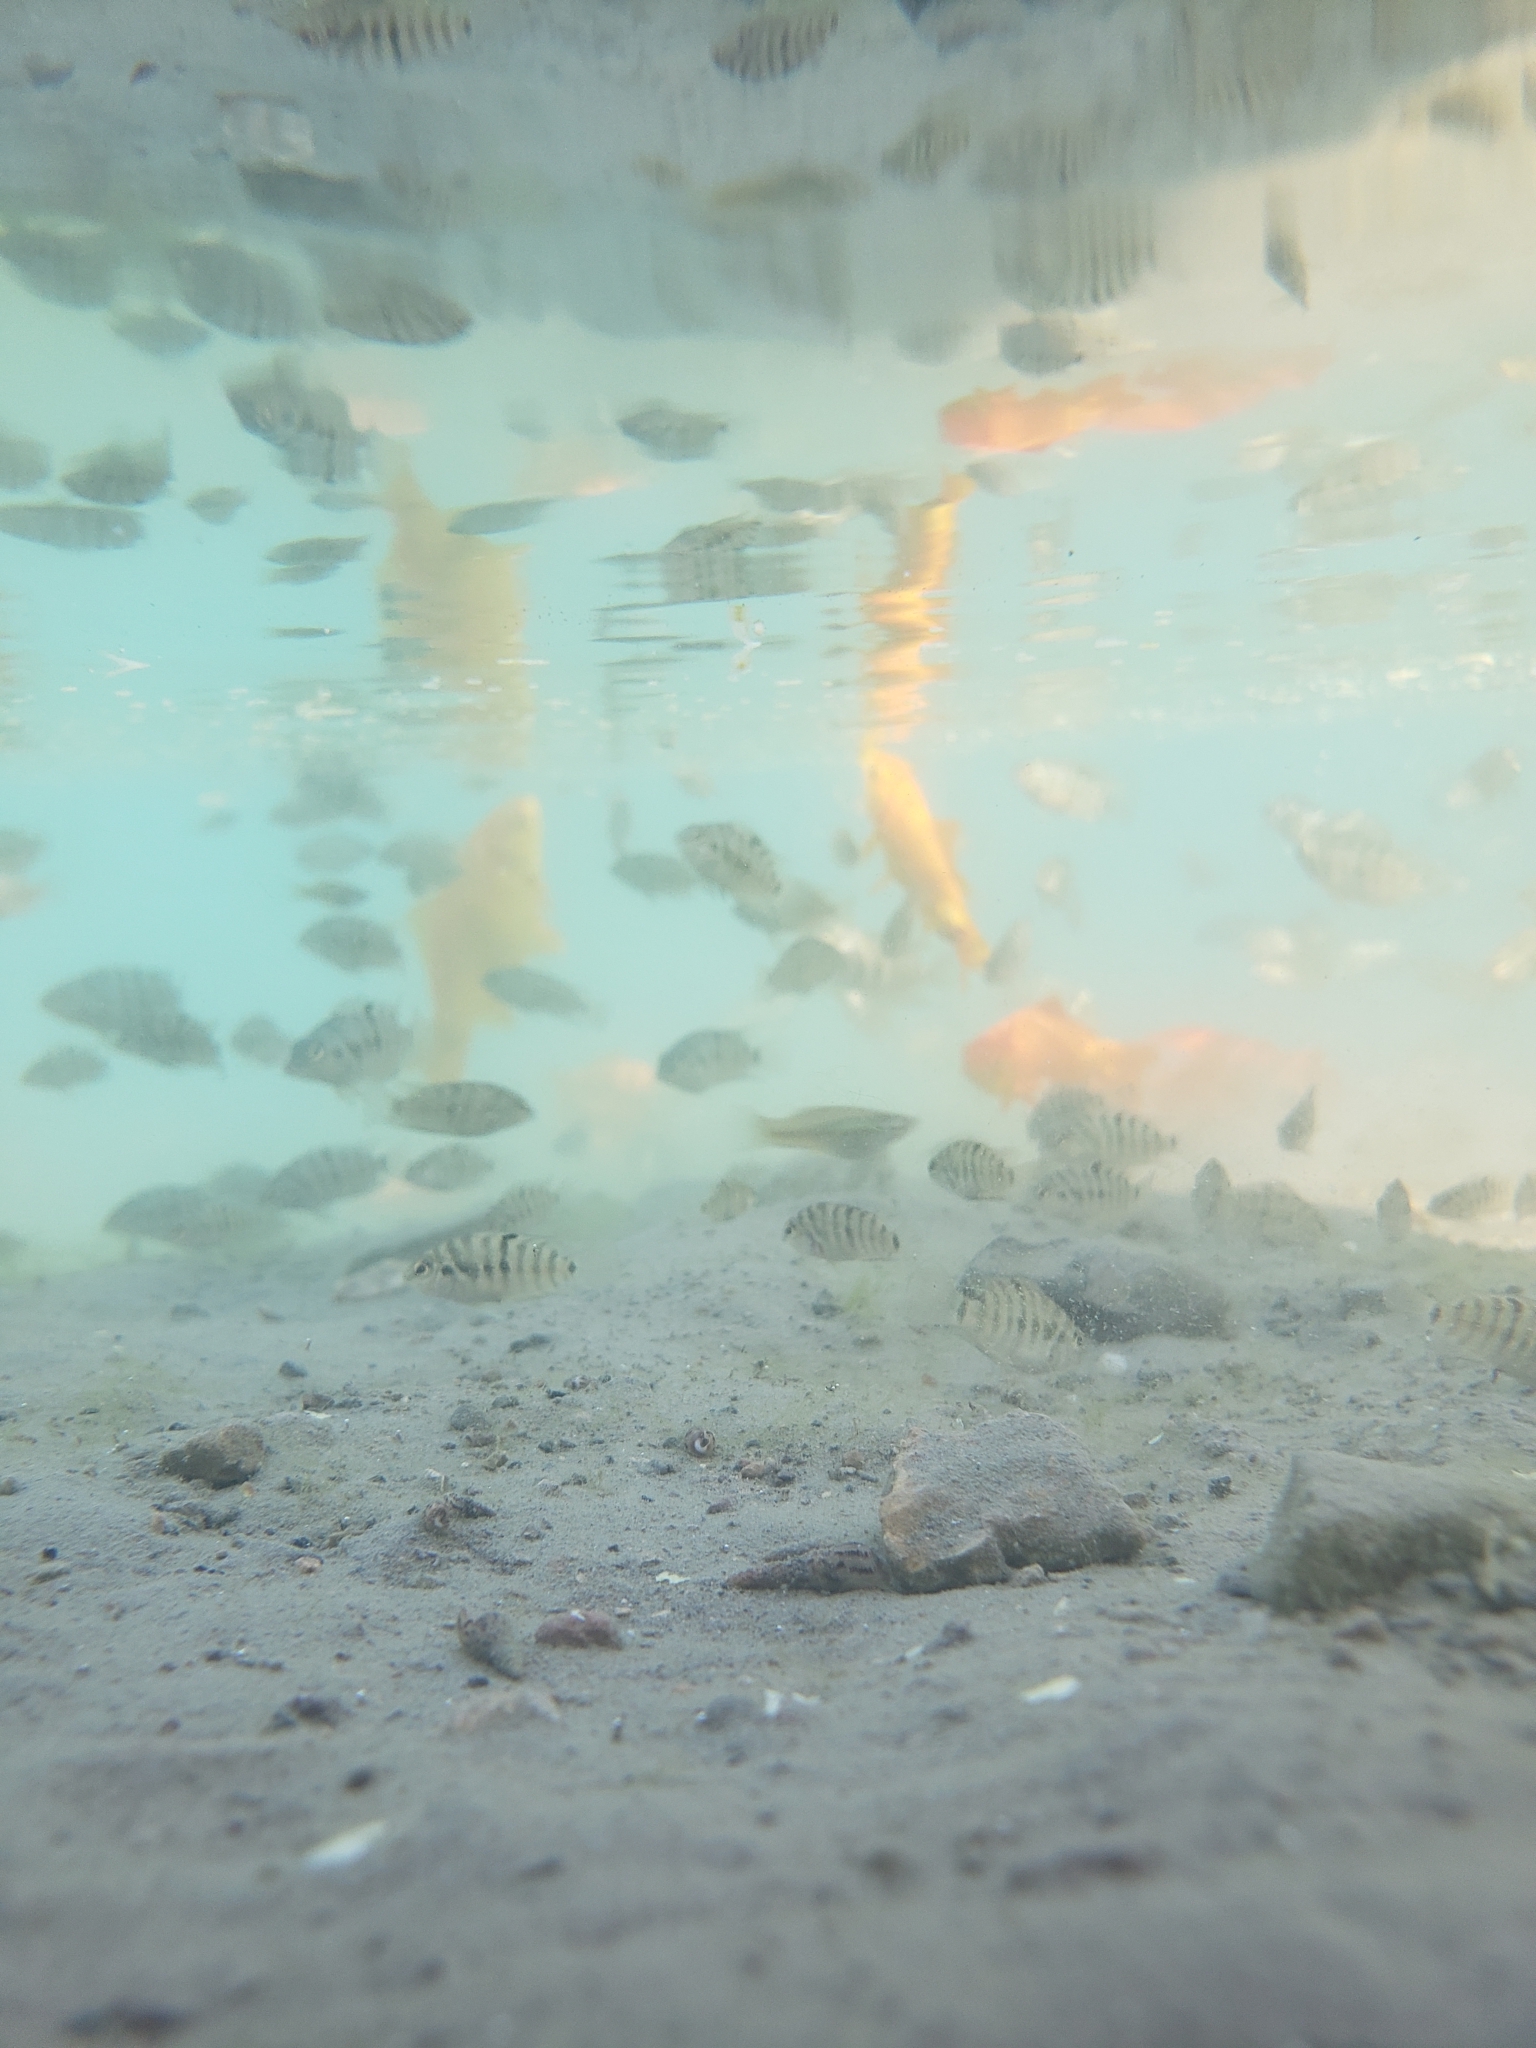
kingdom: Animalia
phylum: Chordata
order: Perciformes
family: Cichlidae
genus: Amatitlania
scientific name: Amatitlania nigrofasciata
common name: Convict cichlid
